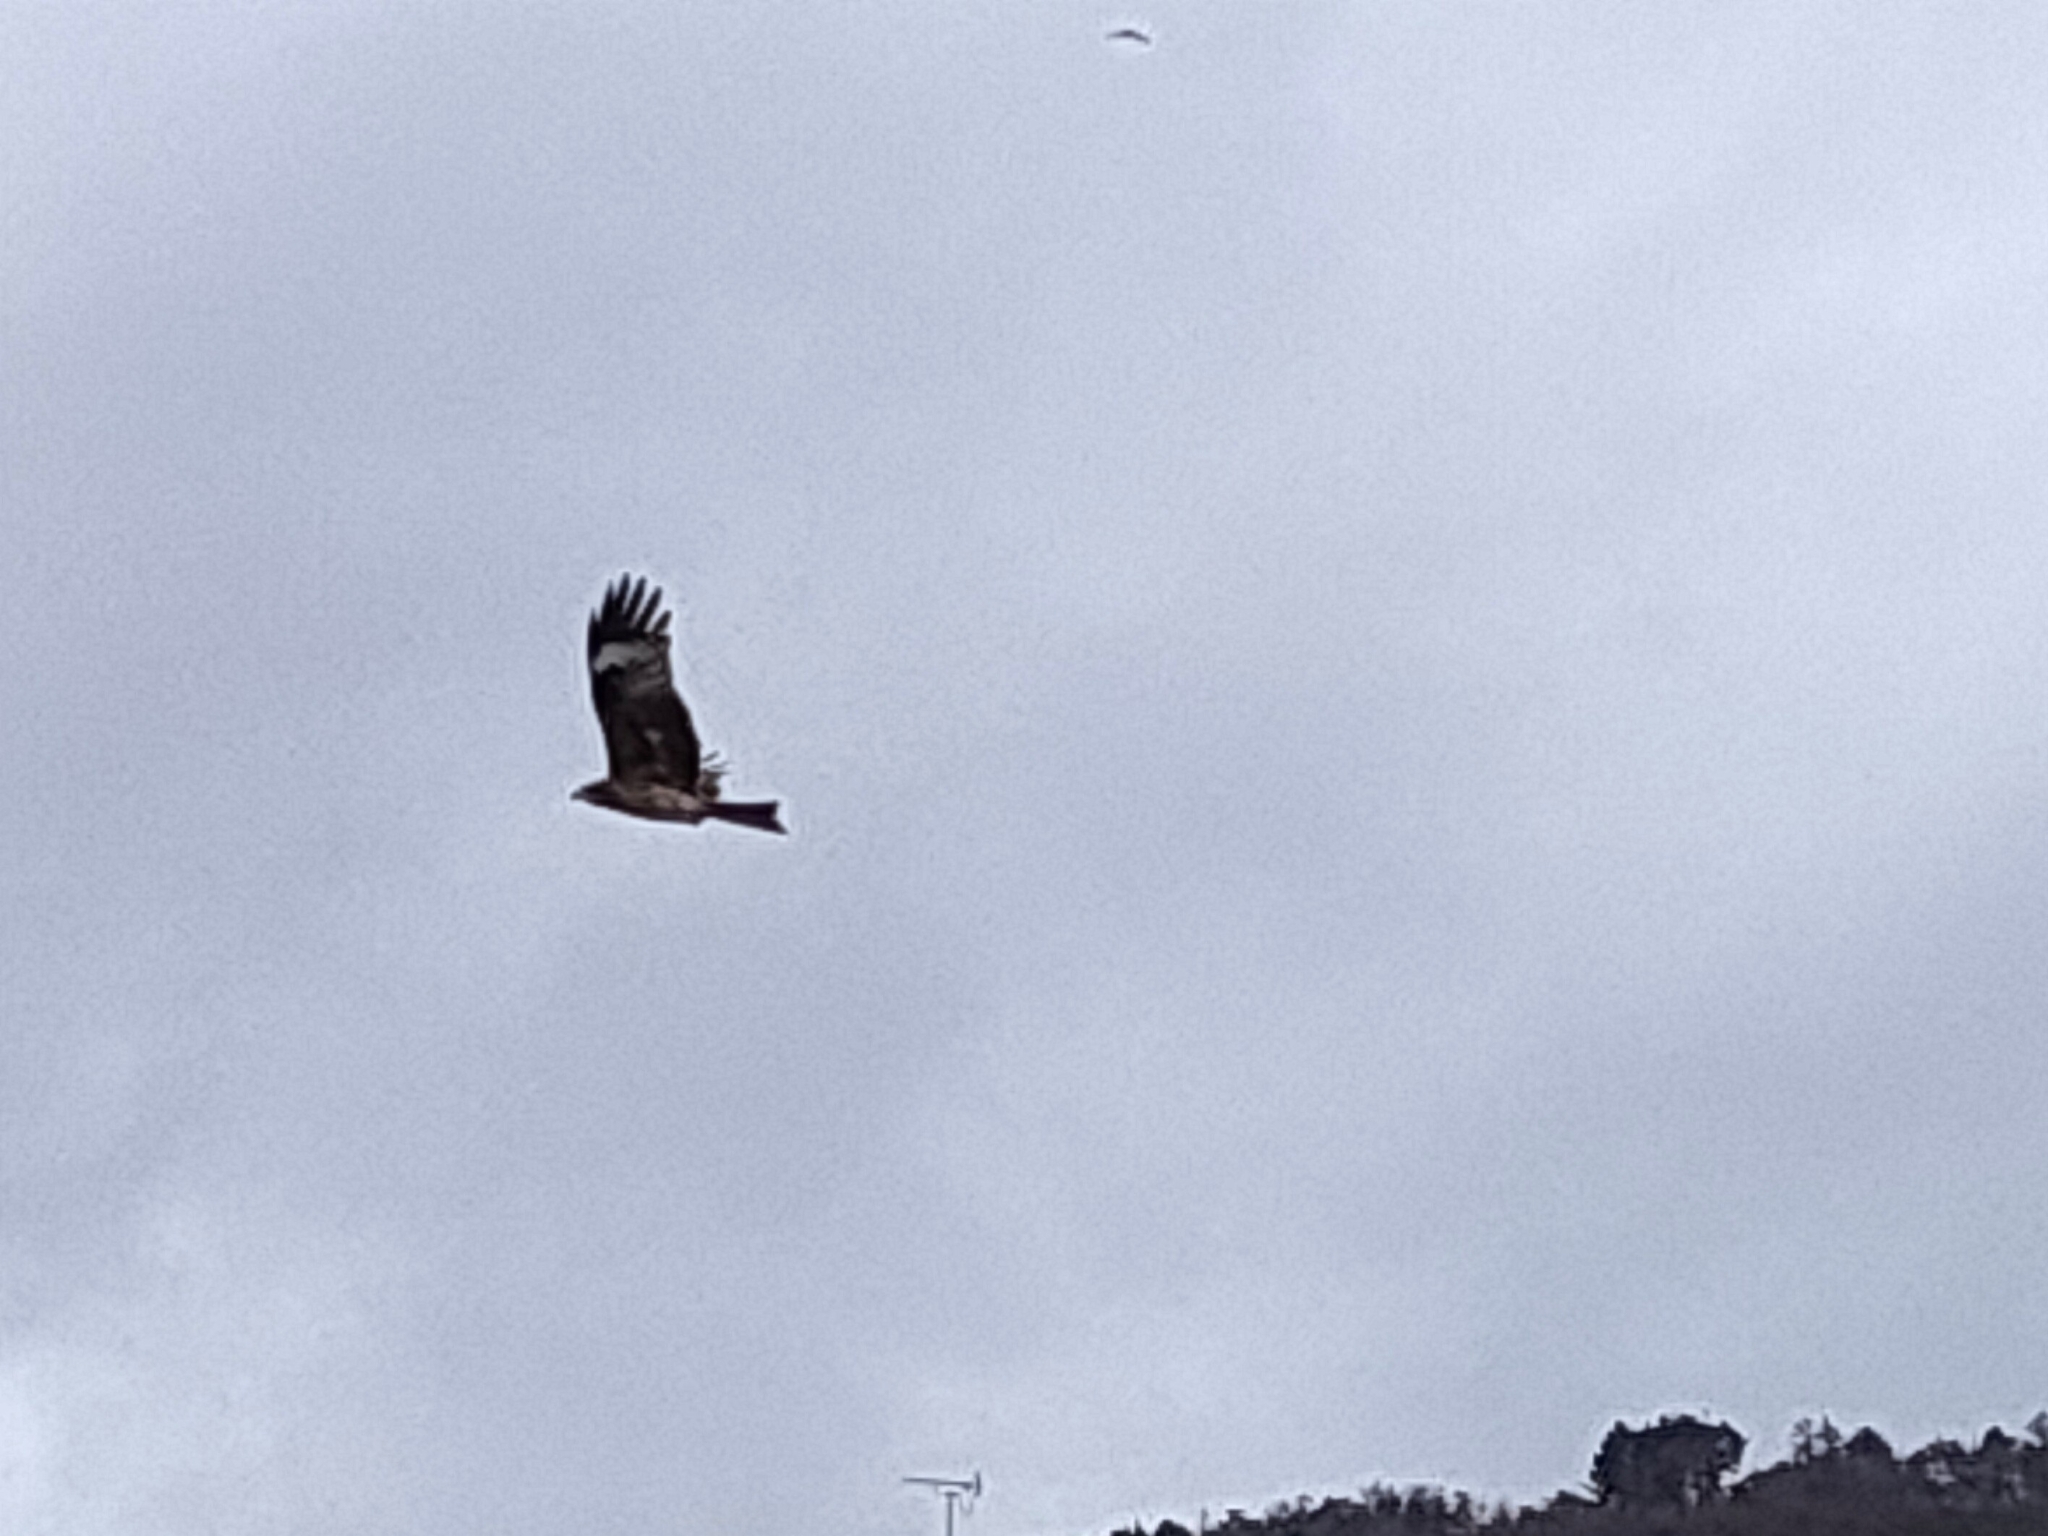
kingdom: Animalia
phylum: Chordata
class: Aves
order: Accipitriformes
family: Accipitridae
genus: Milvus
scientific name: Milvus migrans
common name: Black kite
